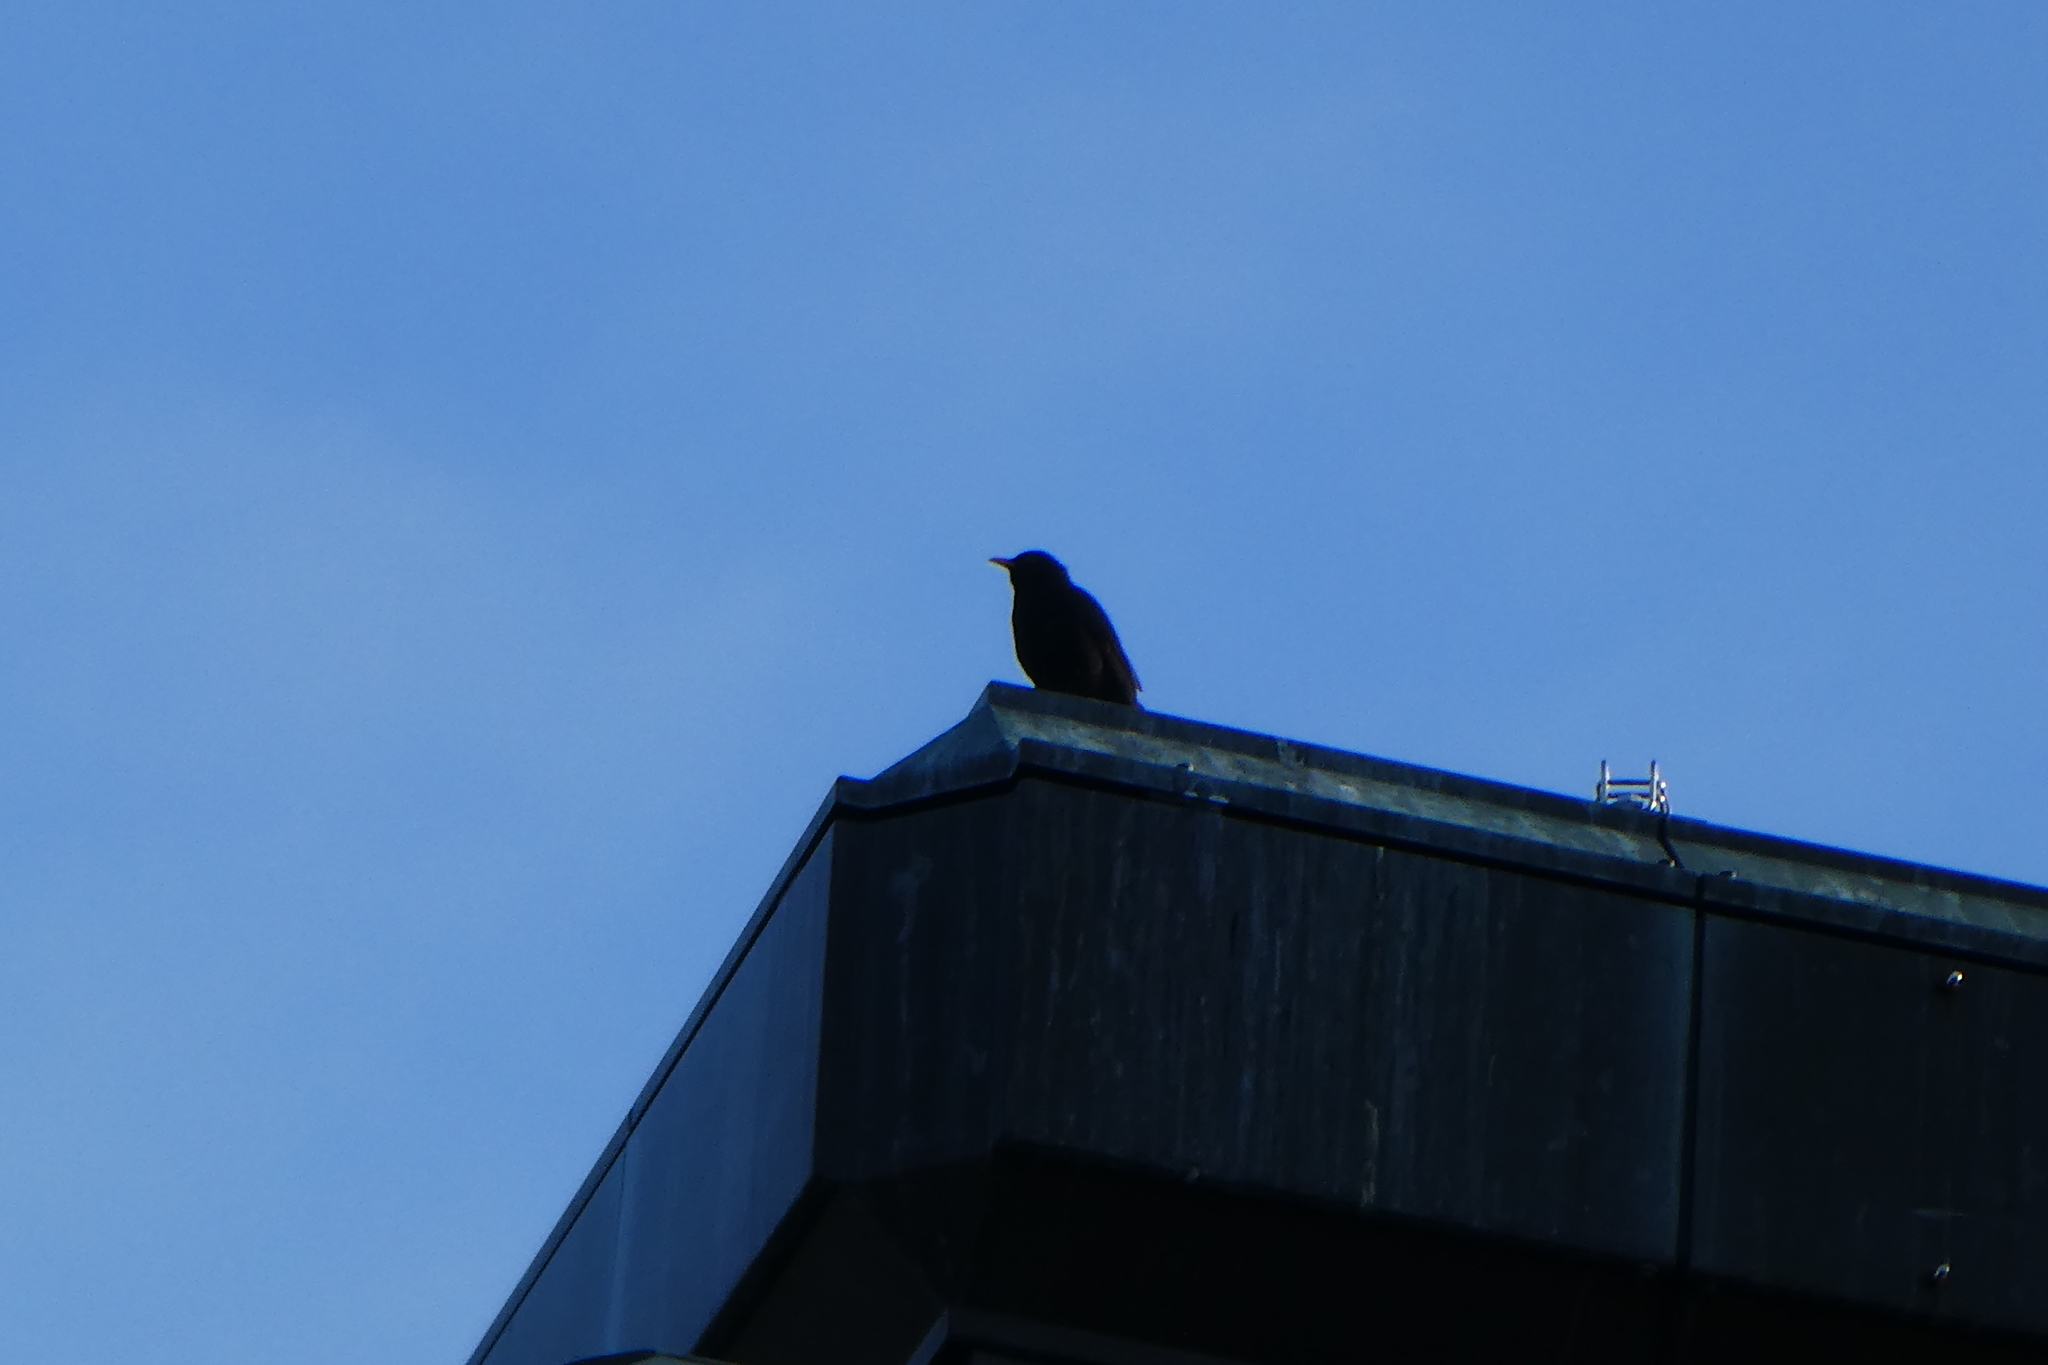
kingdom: Animalia
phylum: Chordata
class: Aves
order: Passeriformes
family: Turdidae
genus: Turdus
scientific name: Turdus merula
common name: Common blackbird
